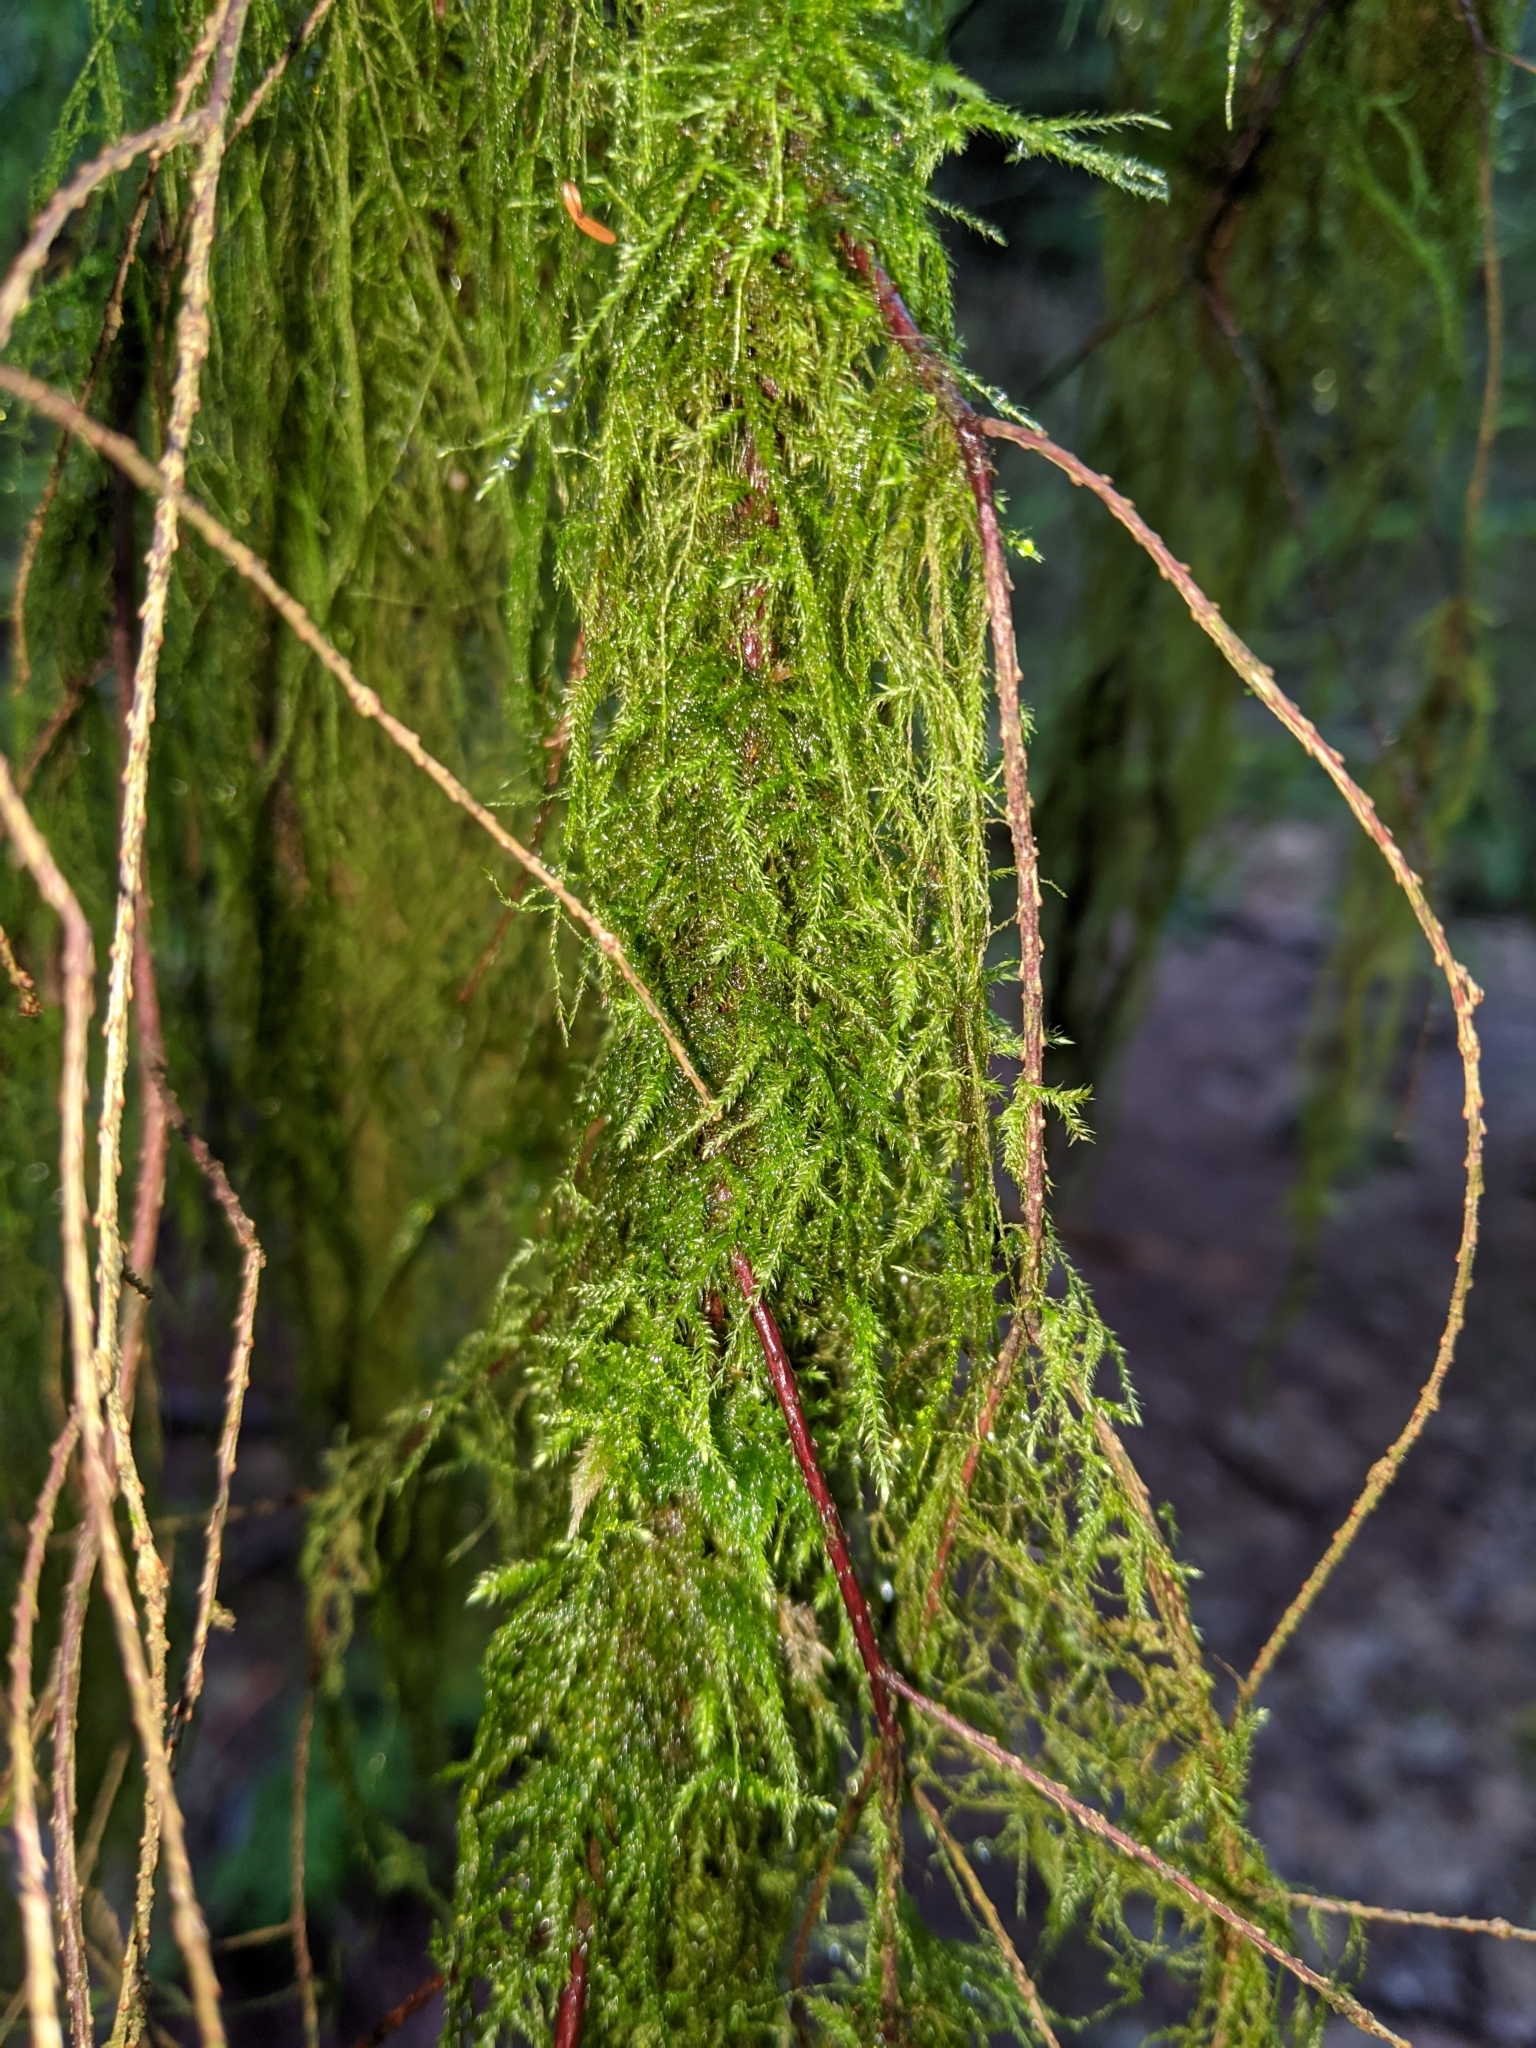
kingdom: Plantae
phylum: Bryophyta
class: Bryopsida
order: Hypnales
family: Lembophyllaceae
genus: Pseudisothecium
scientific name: Pseudisothecium stoloniferum
